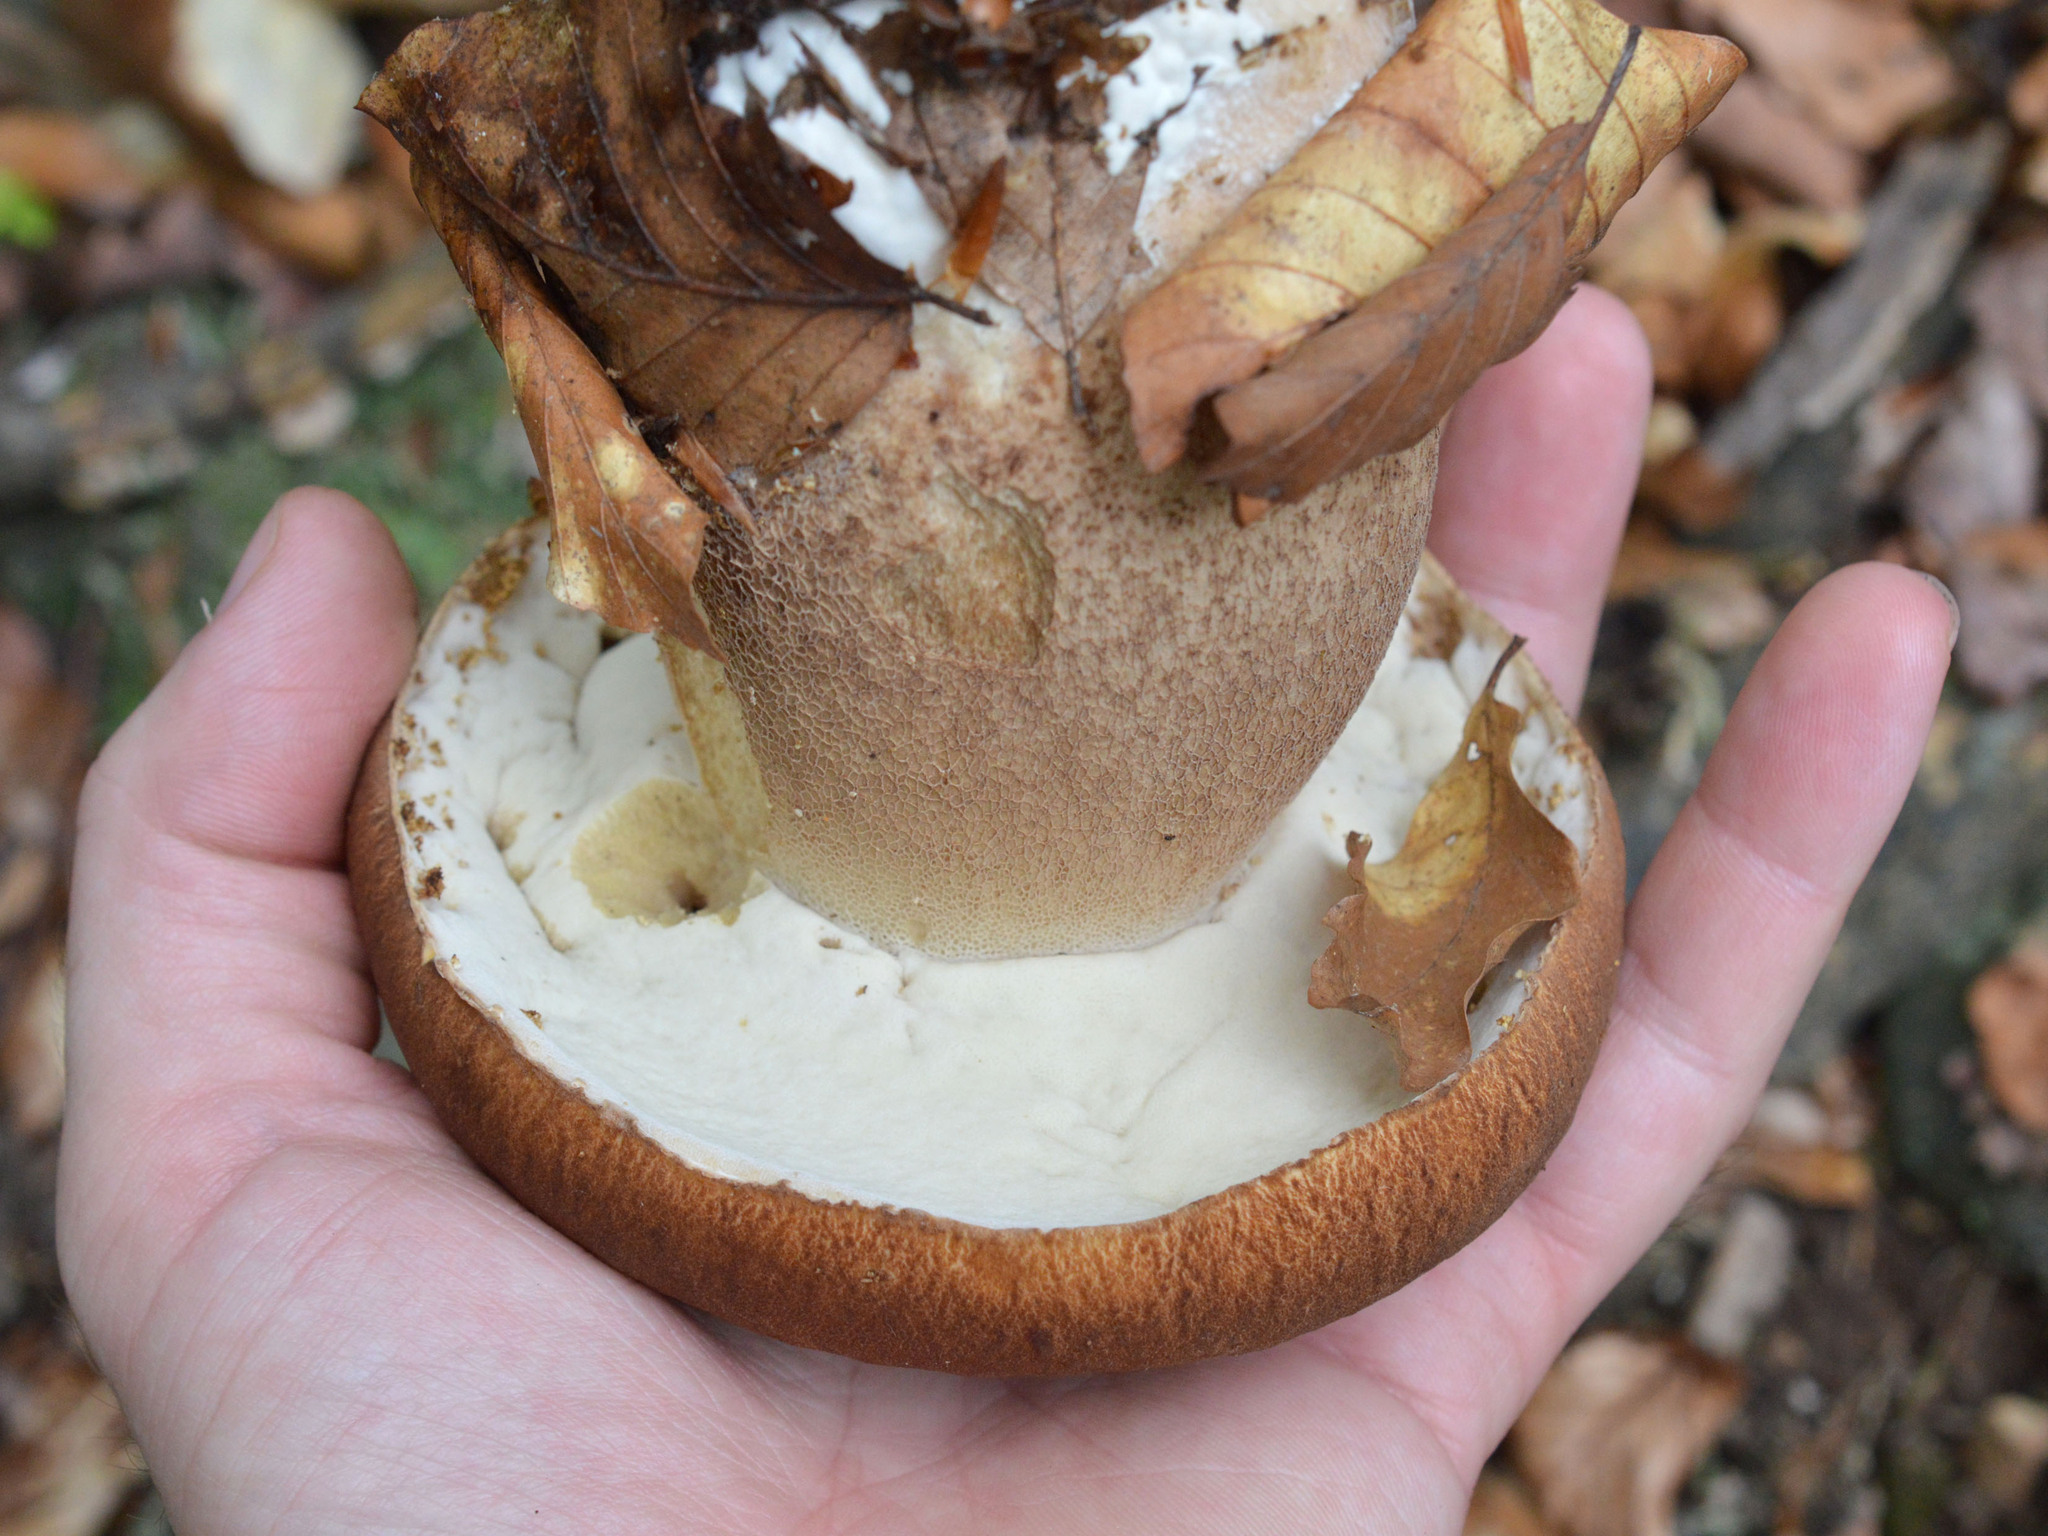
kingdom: Fungi
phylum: Basidiomycota
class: Agaricomycetes
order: Boletales
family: Boletaceae
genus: Boletus
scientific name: Boletus reticulatus
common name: Summer bolete
